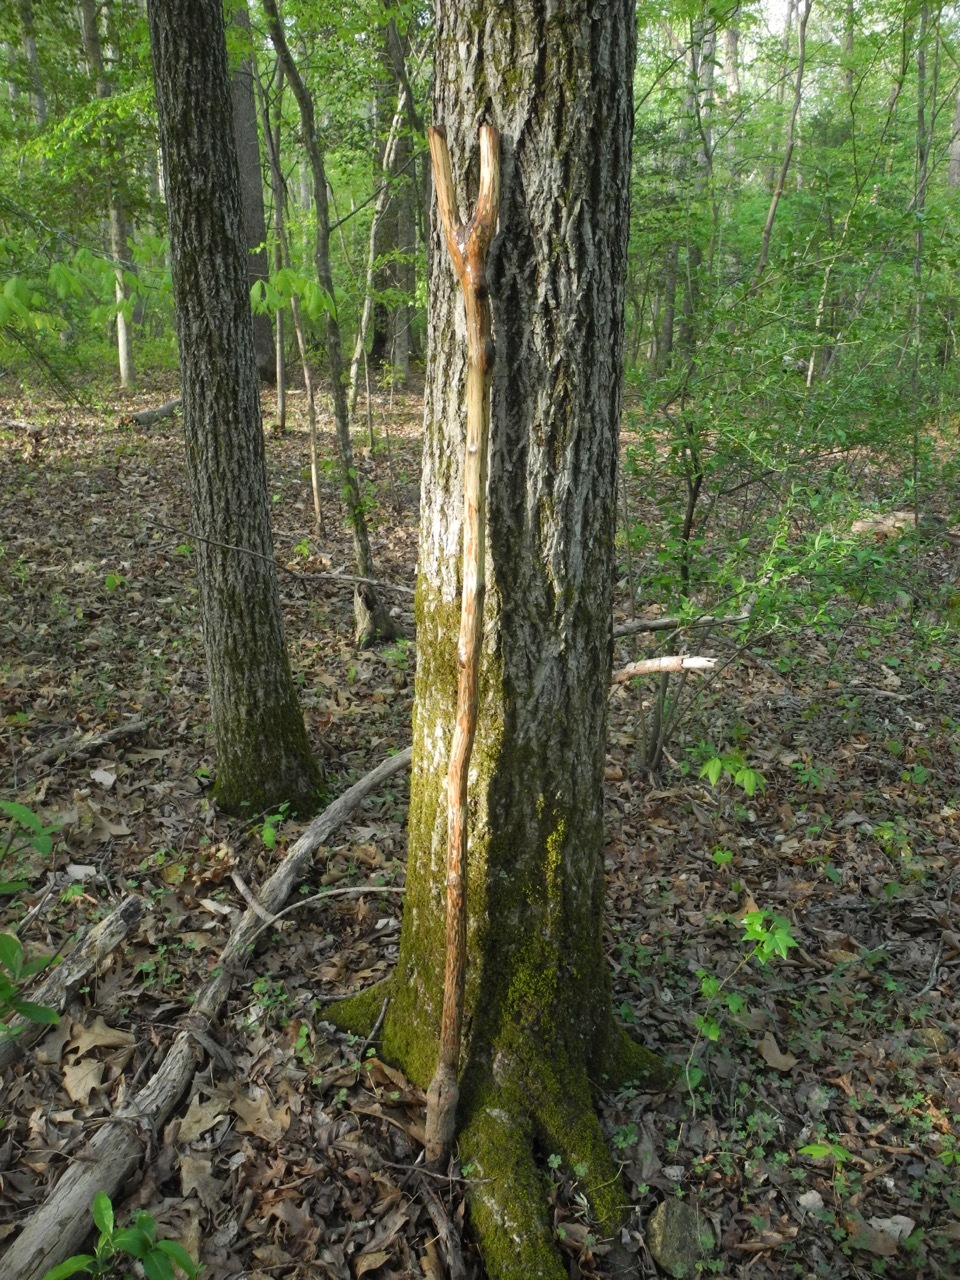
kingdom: Plantae
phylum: Tracheophyta
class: Magnoliopsida
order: Fagales
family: Juglandaceae
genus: Carya
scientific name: Carya alba
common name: Mockernut hickory
